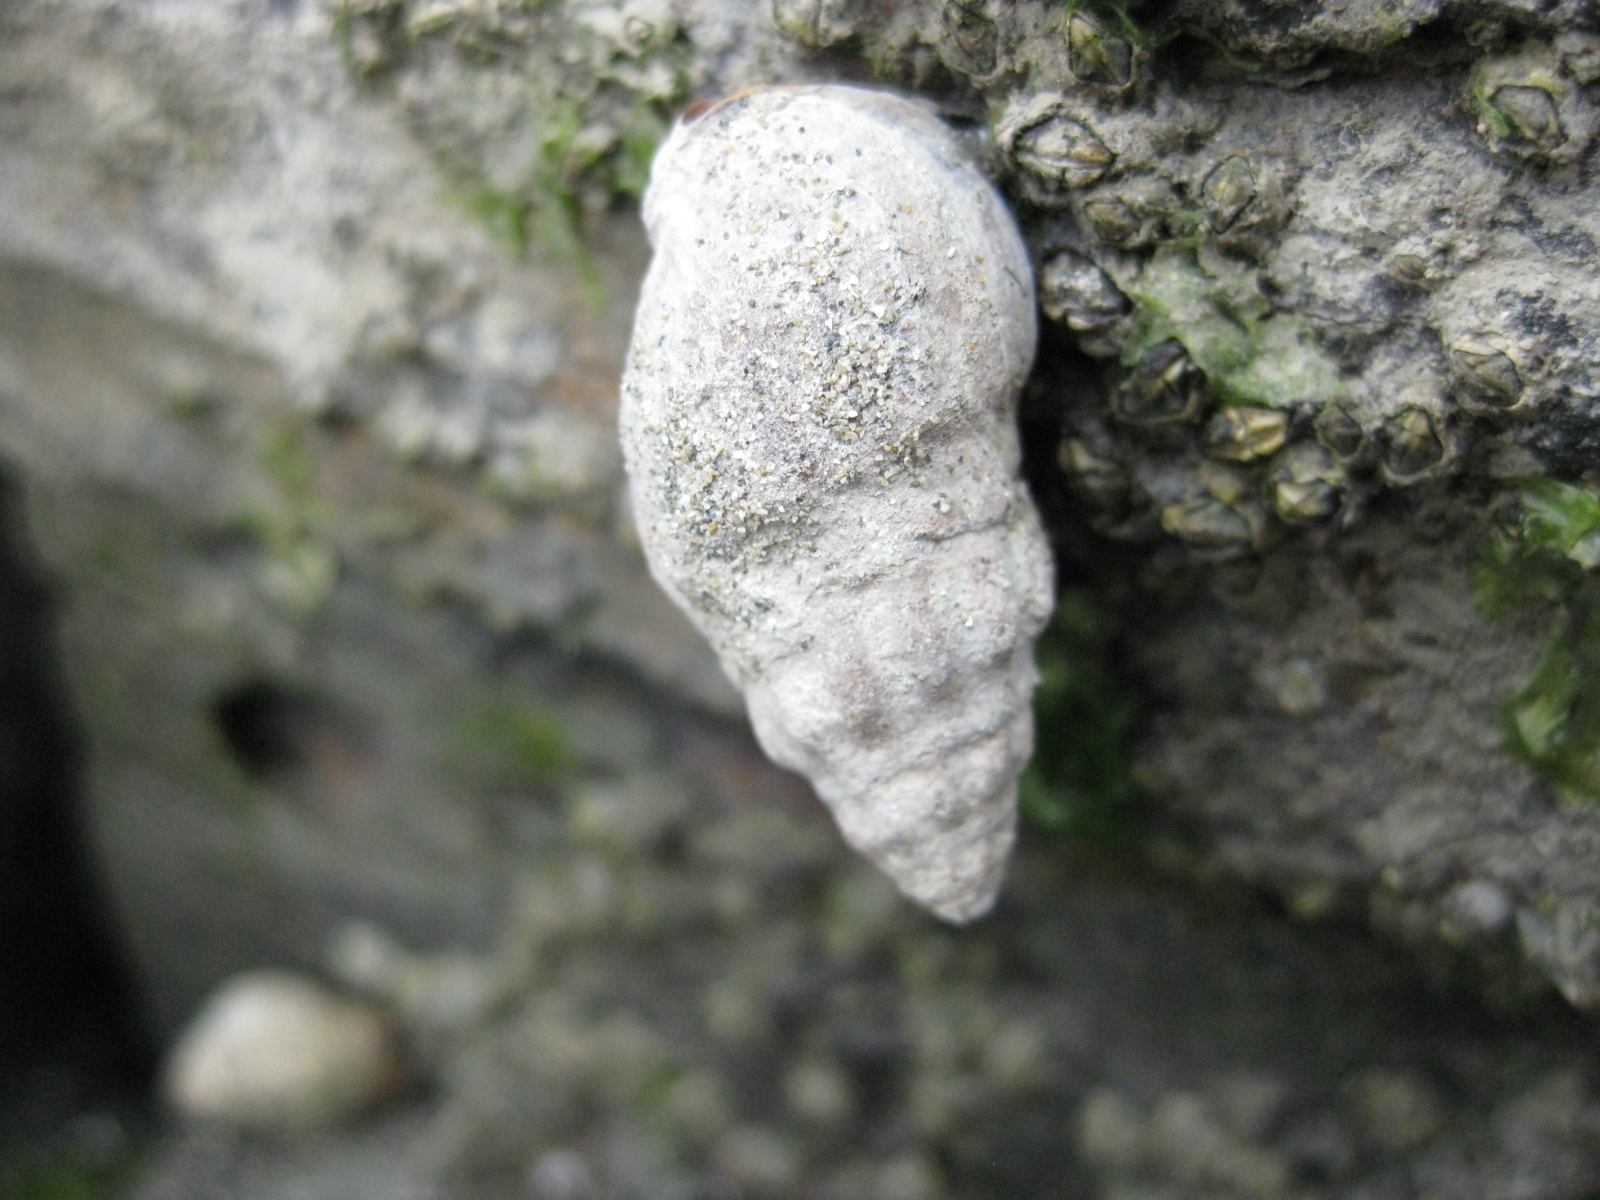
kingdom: Animalia
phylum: Mollusca
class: Gastropoda
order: Neogastropoda
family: Cominellidae
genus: Cominella
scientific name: Cominella glandiformis
